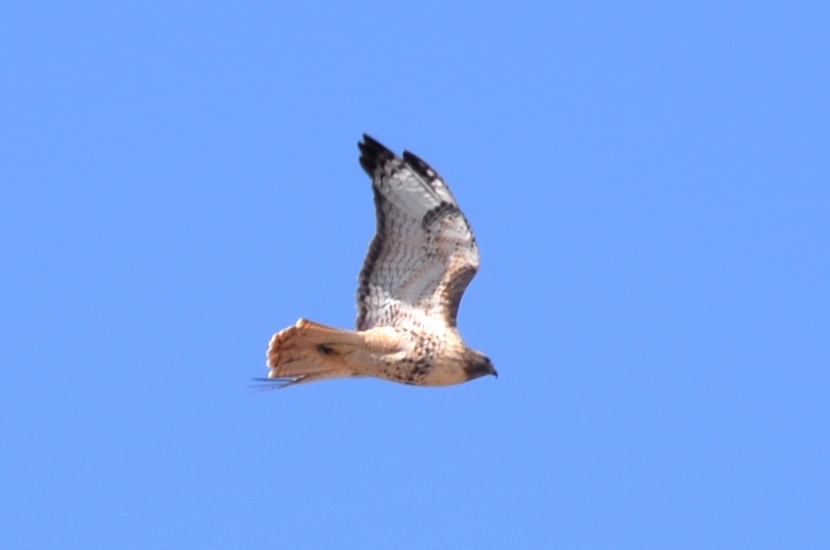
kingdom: Animalia
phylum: Chordata
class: Aves
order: Accipitriformes
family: Accipitridae
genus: Buteo
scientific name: Buteo jamaicensis
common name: Red-tailed hawk
